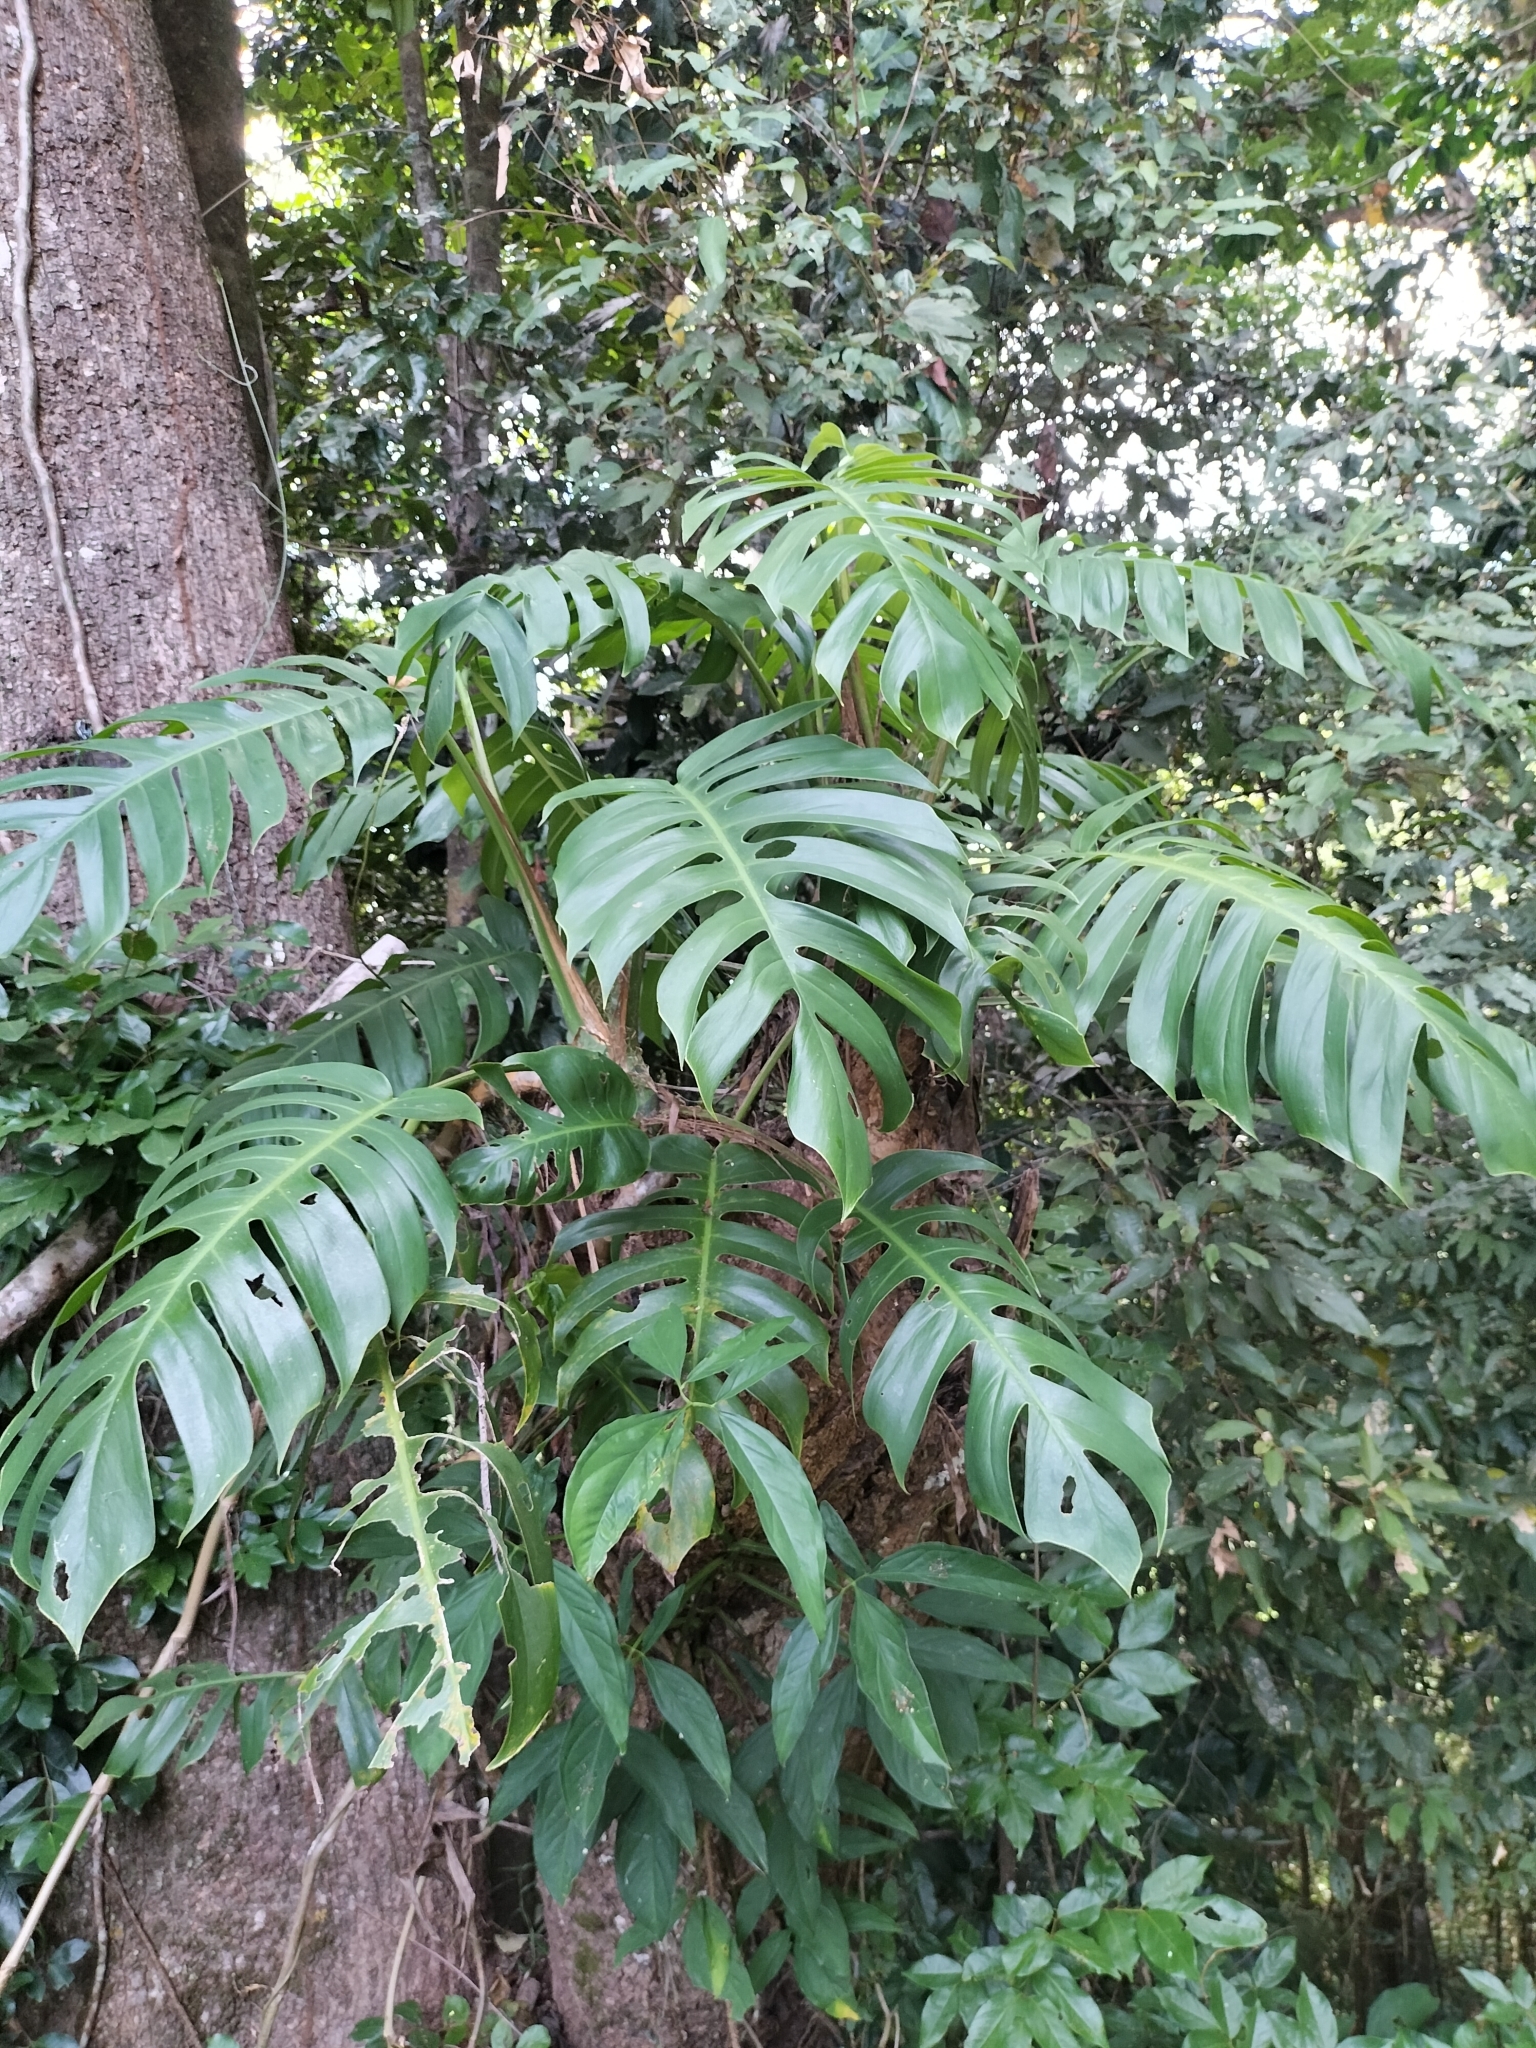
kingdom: Plantae
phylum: Tracheophyta
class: Liliopsida
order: Alismatales
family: Araceae
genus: Epipremnum
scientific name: Epipremnum pinnatum
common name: Centipede tongavine
